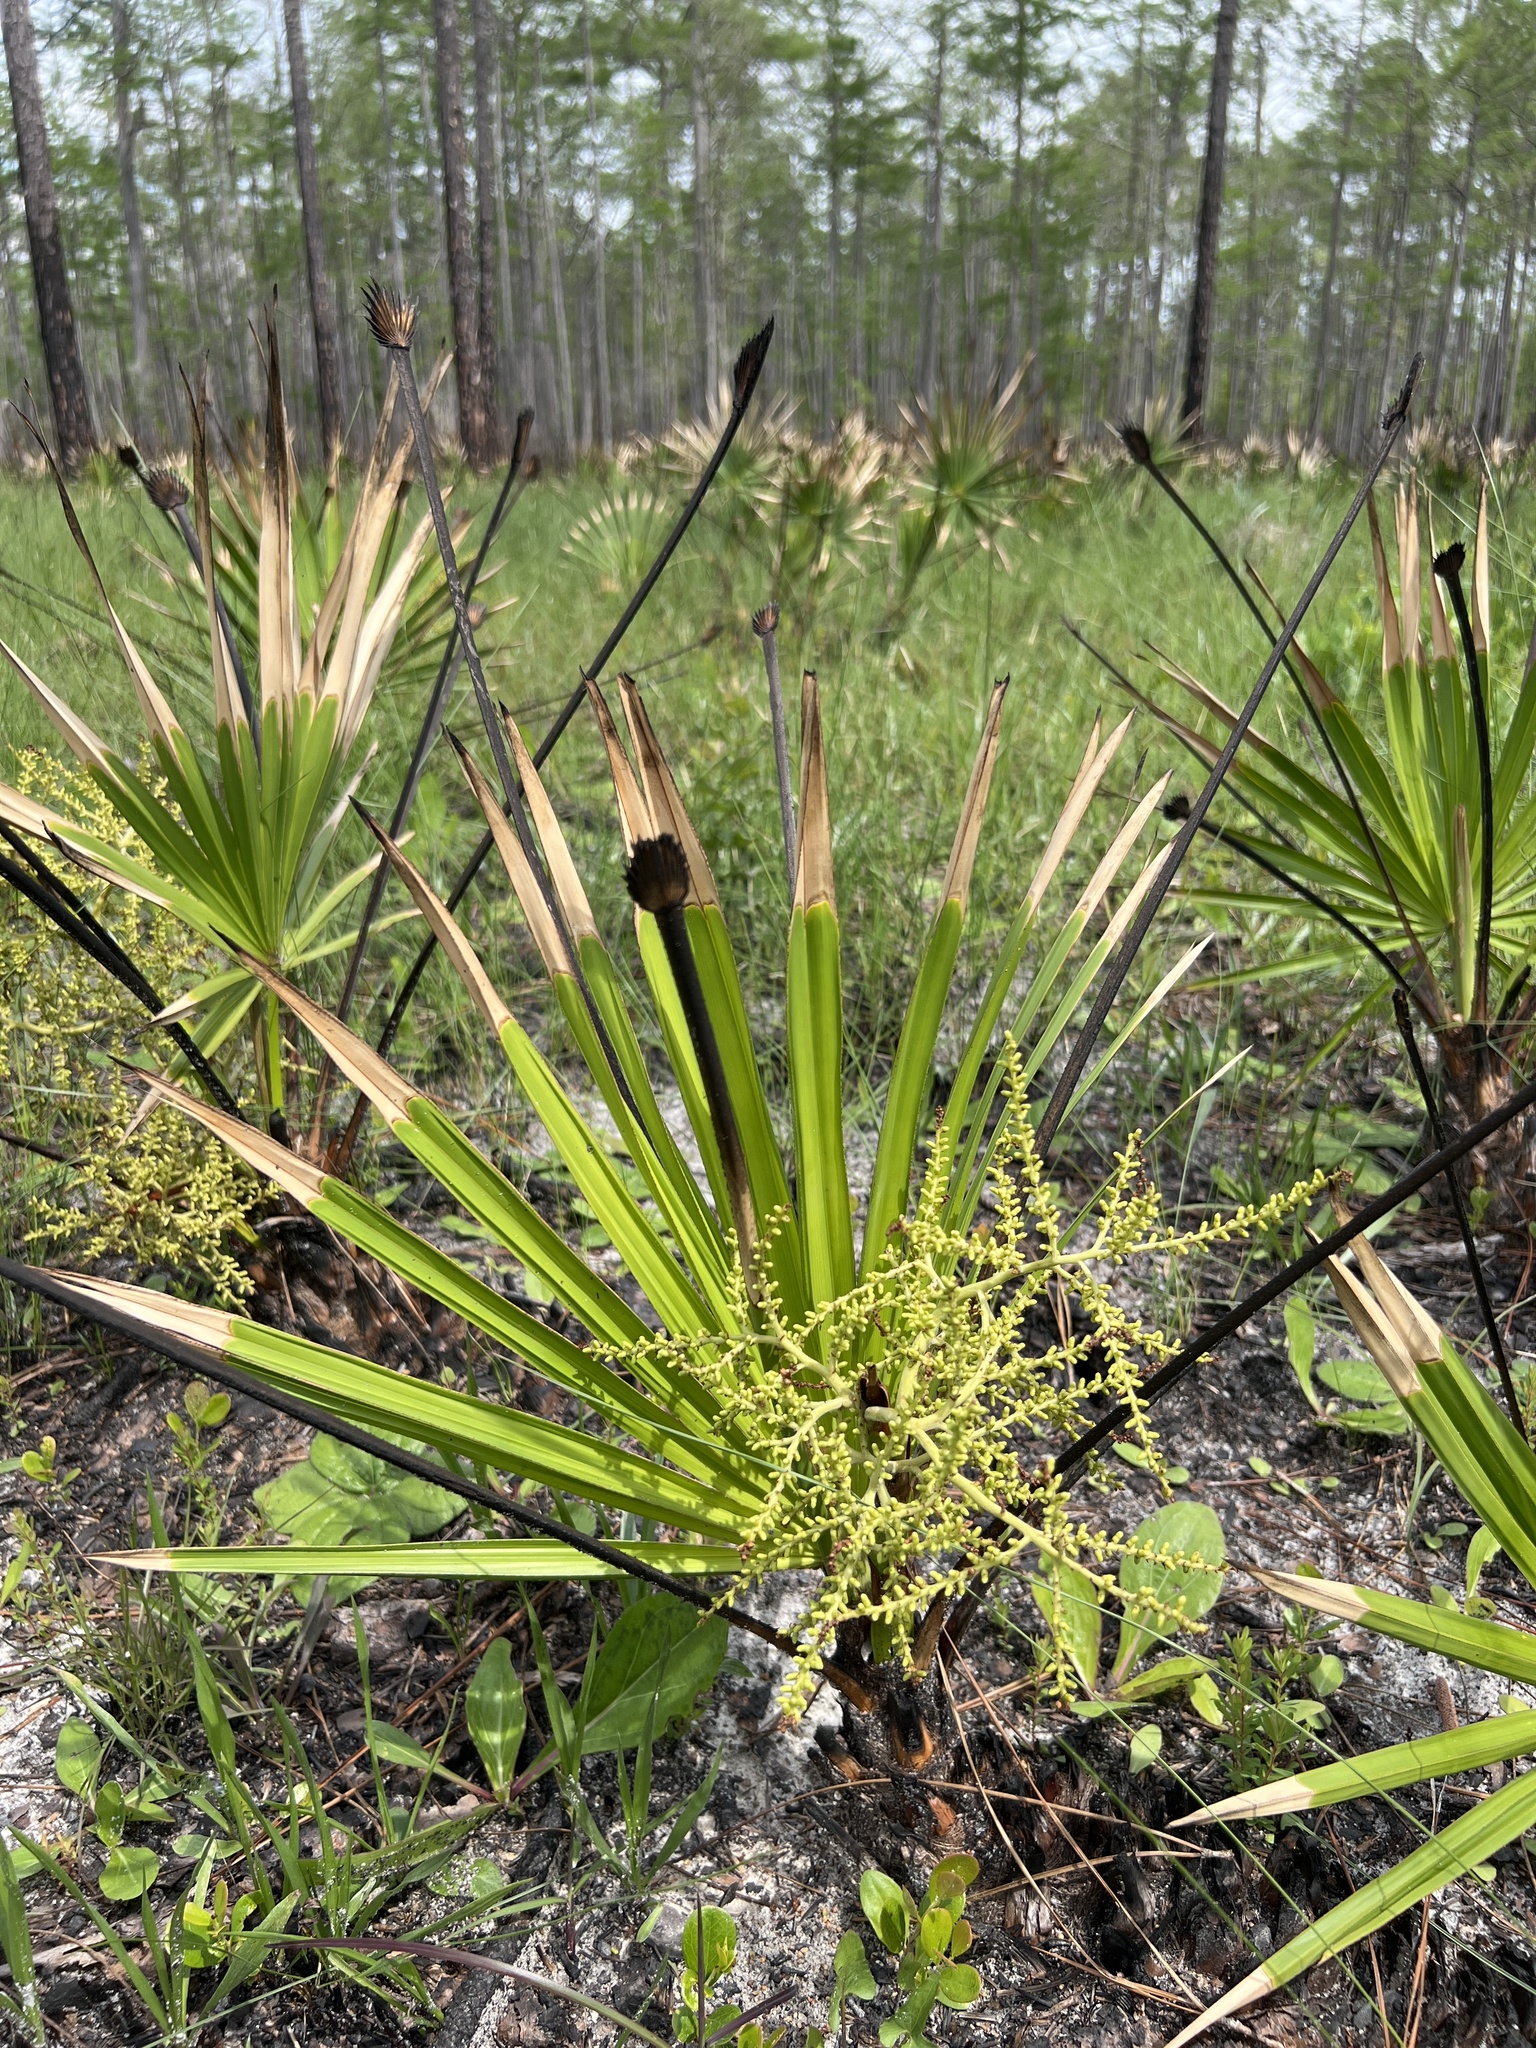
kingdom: Plantae
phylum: Tracheophyta
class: Liliopsida
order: Arecales
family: Arecaceae
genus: Serenoa
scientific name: Serenoa repens
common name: Saw-palmetto
